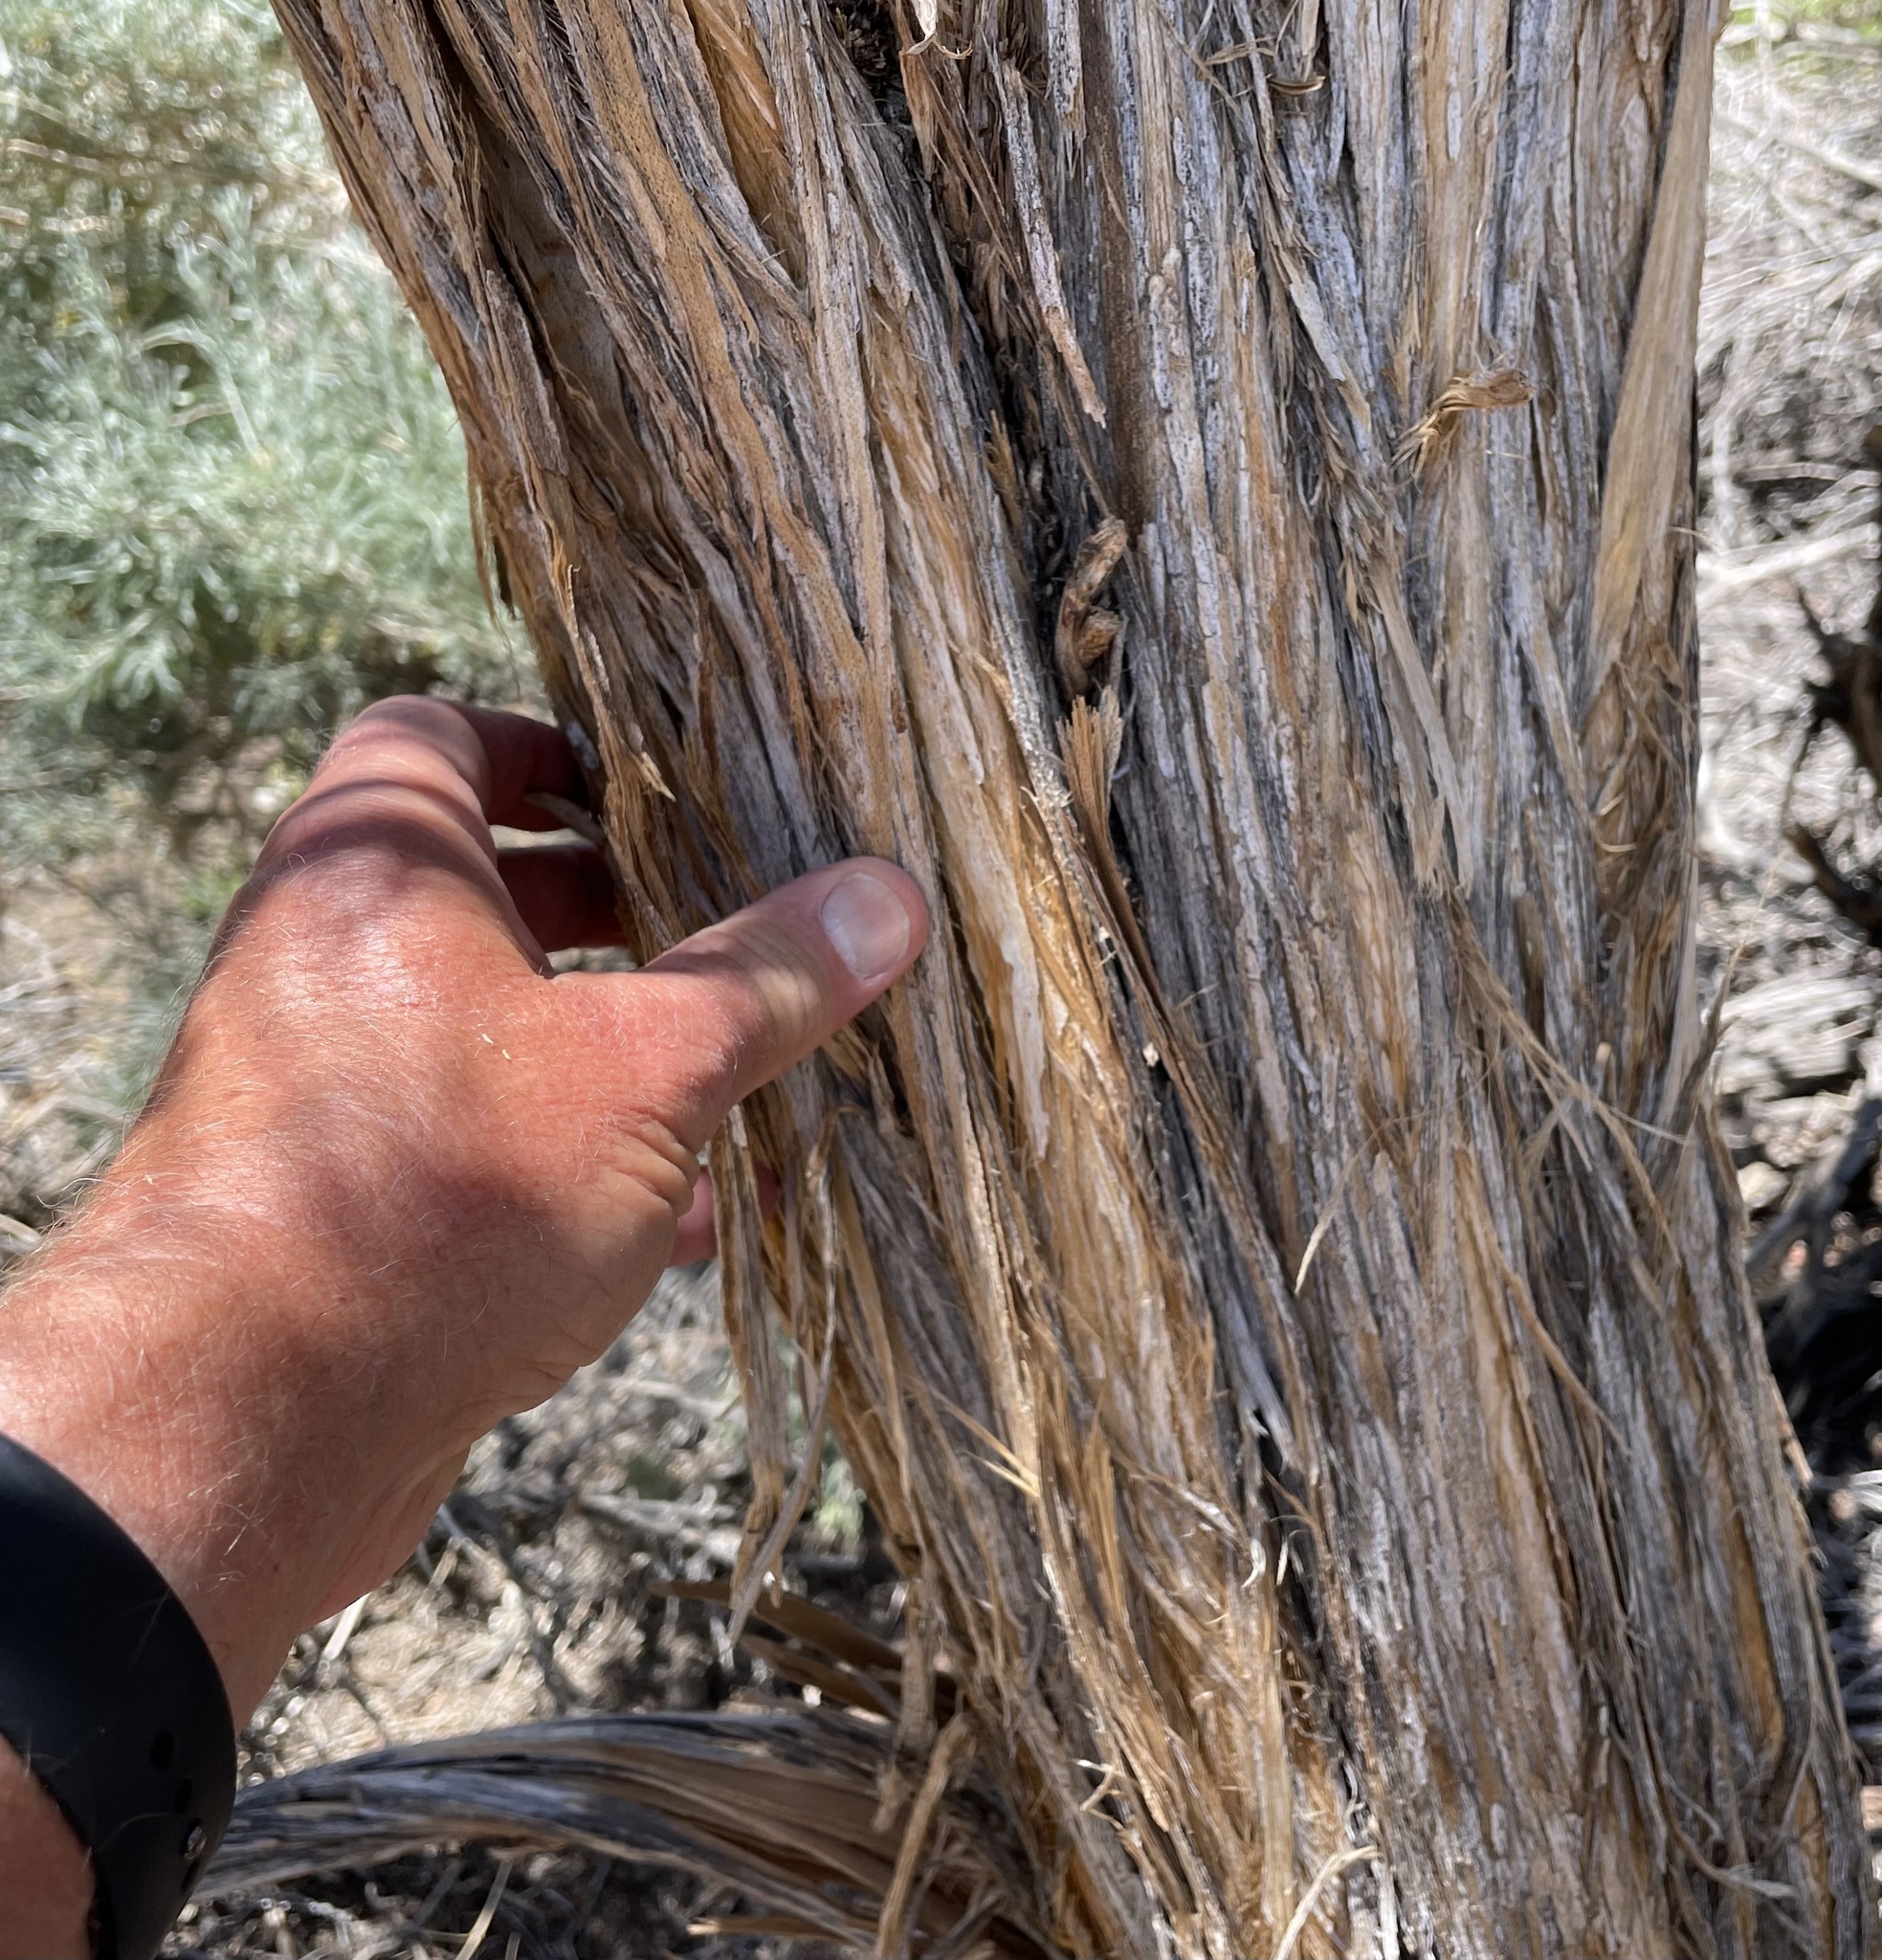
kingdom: Plantae
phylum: Tracheophyta
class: Magnoliopsida
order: Asterales
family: Asteraceae
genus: Artemisia
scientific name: Artemisia tridentata
